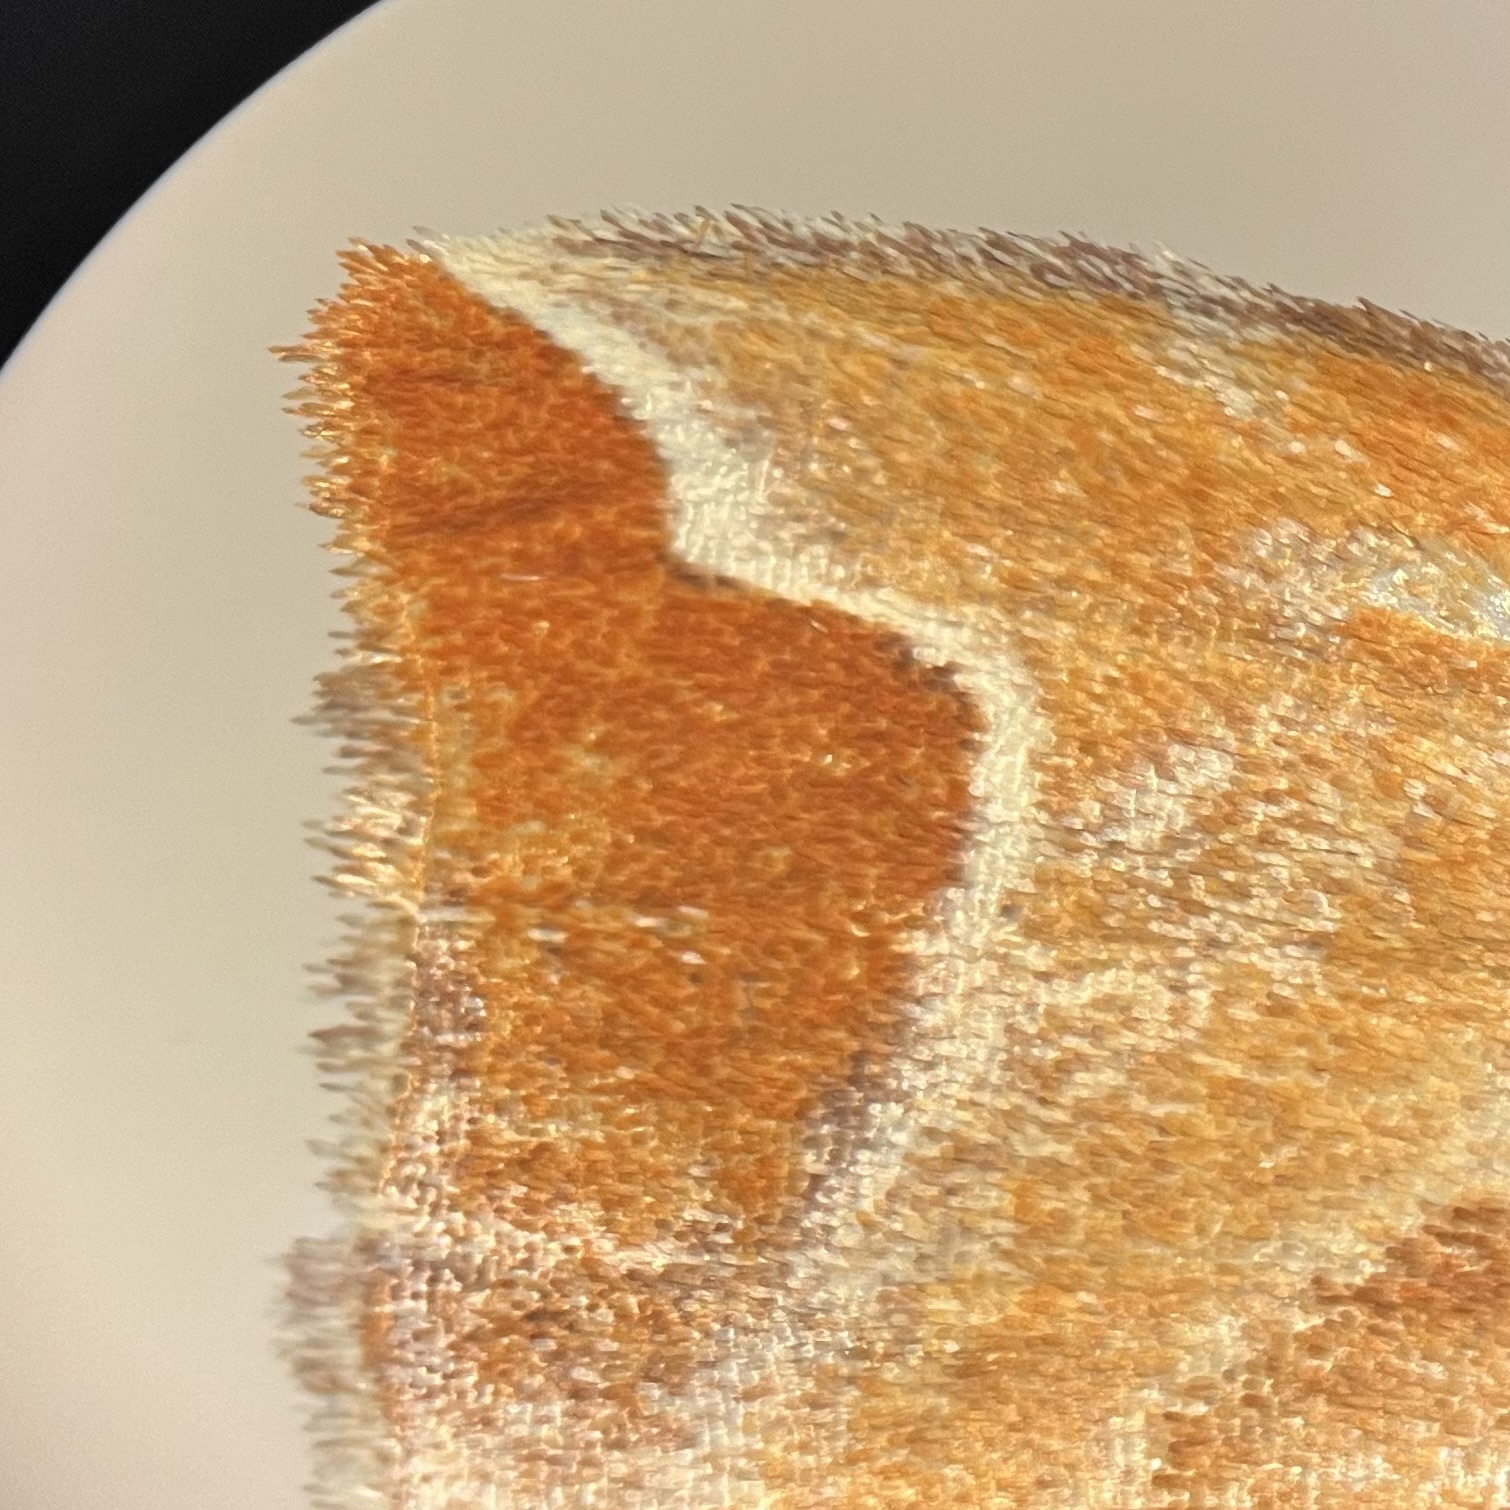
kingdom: Animalia
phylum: Arthropoda
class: Insecta
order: Lepidoptera
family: Geometridae
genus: Eulithis
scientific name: Eulithis molliculata
